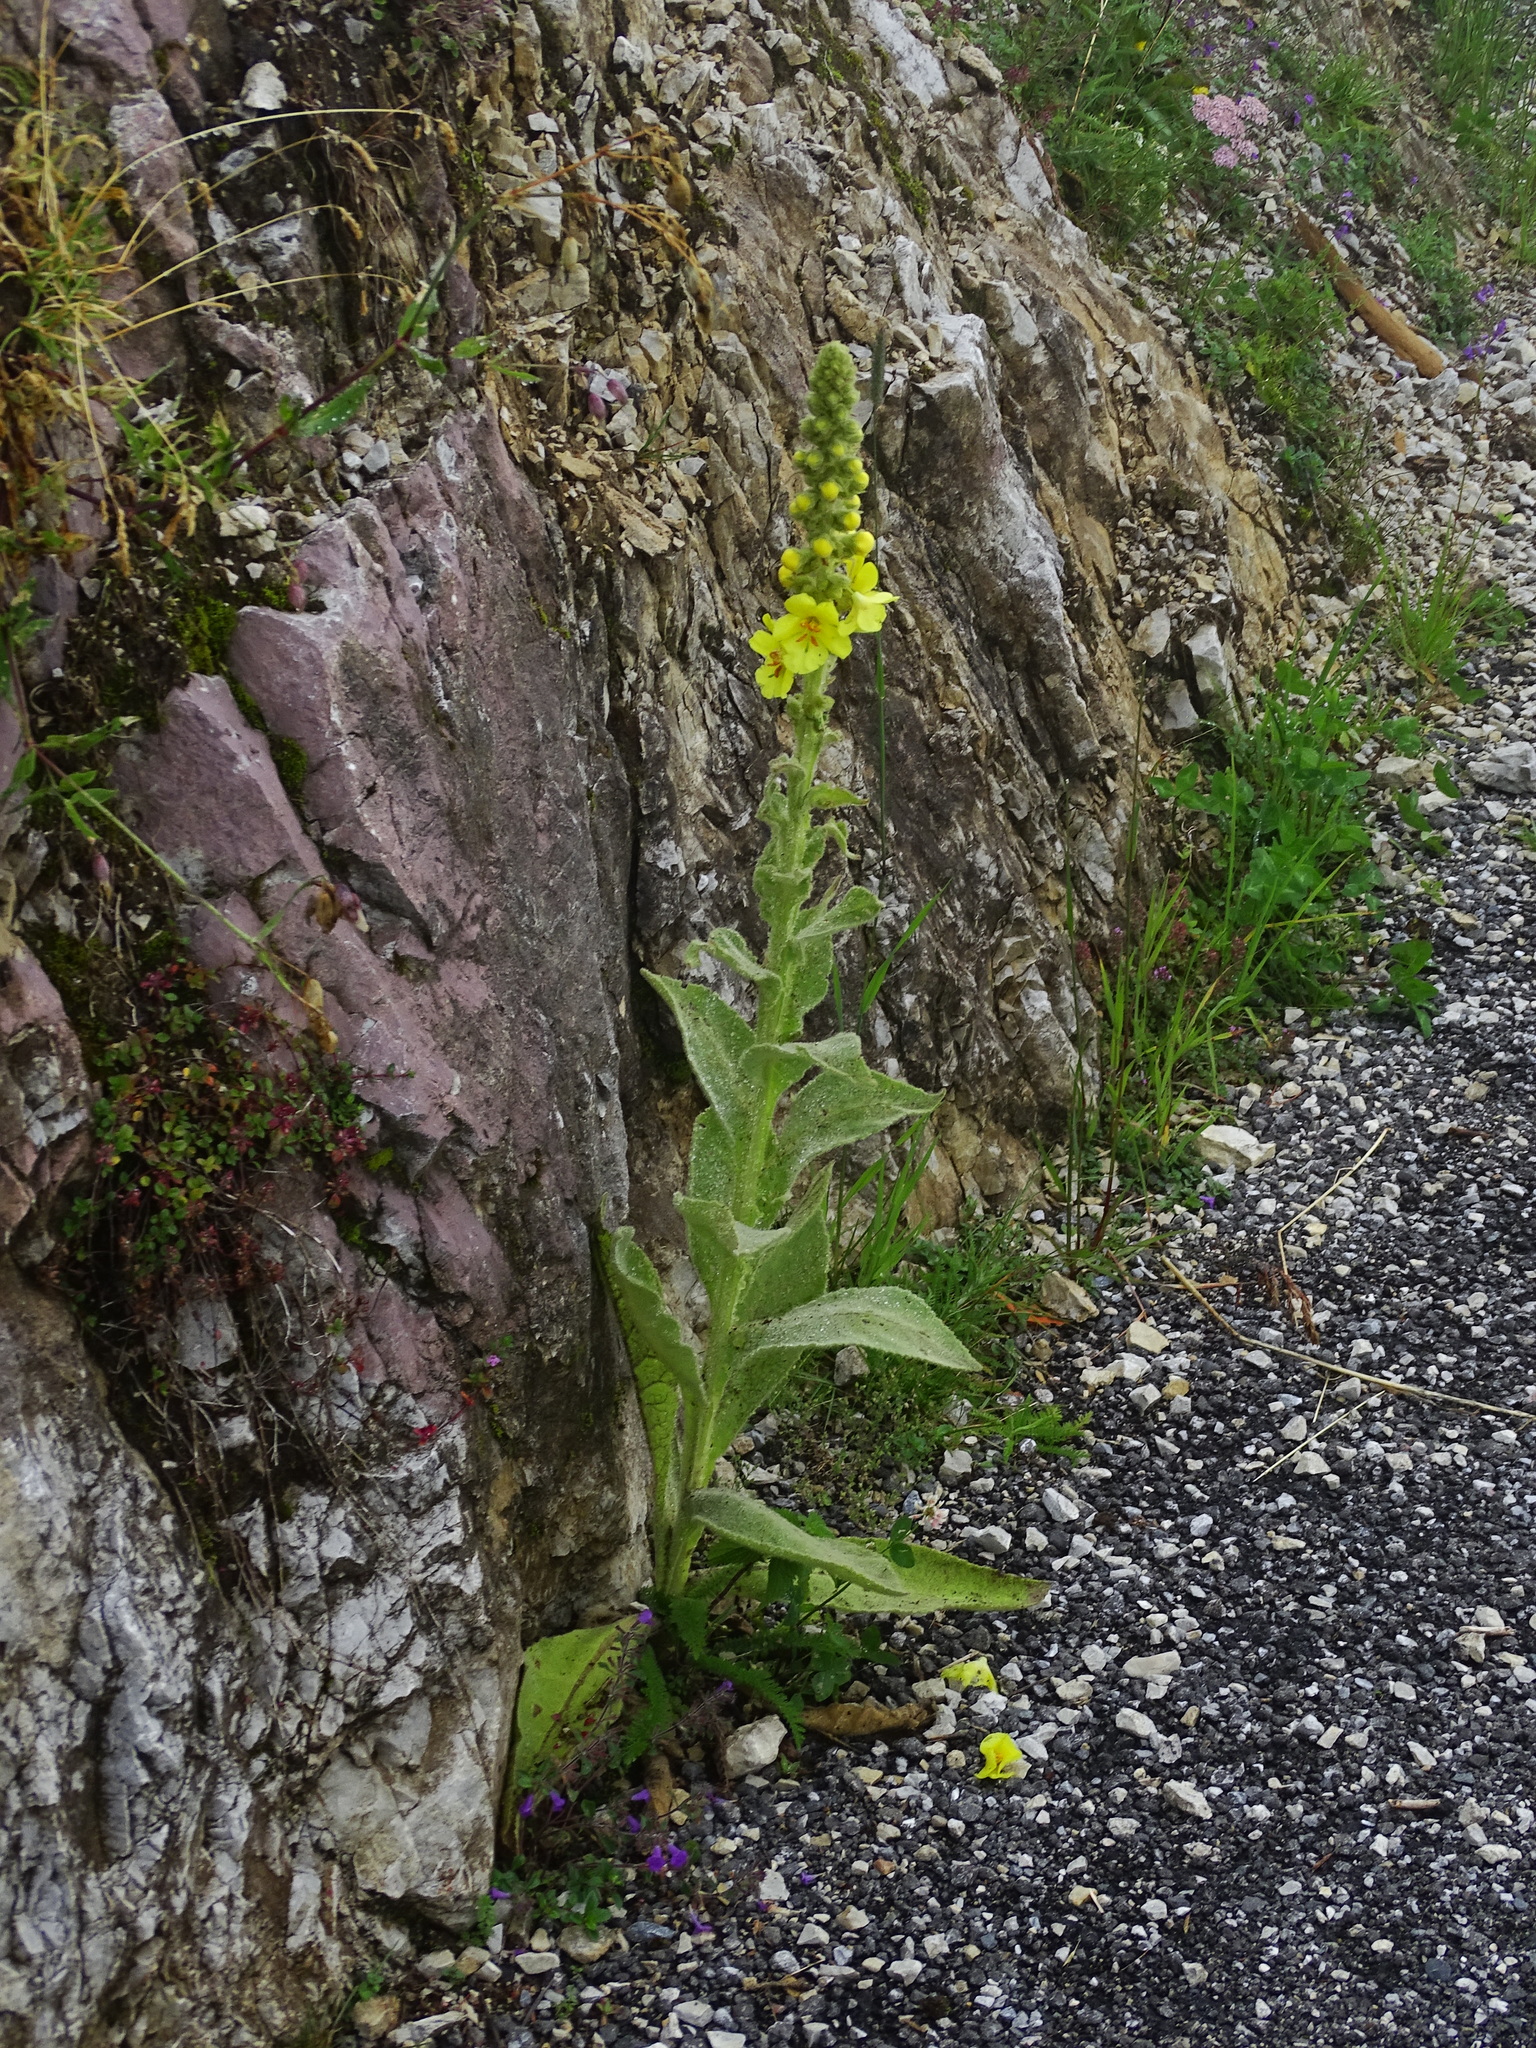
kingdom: Plantae
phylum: Tracheophyta
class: Magnoliopsida
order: Lamiales
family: Scrophulariaceae
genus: Verbascum
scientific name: Verbascum densiflorum
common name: Dense-flowered mullein
